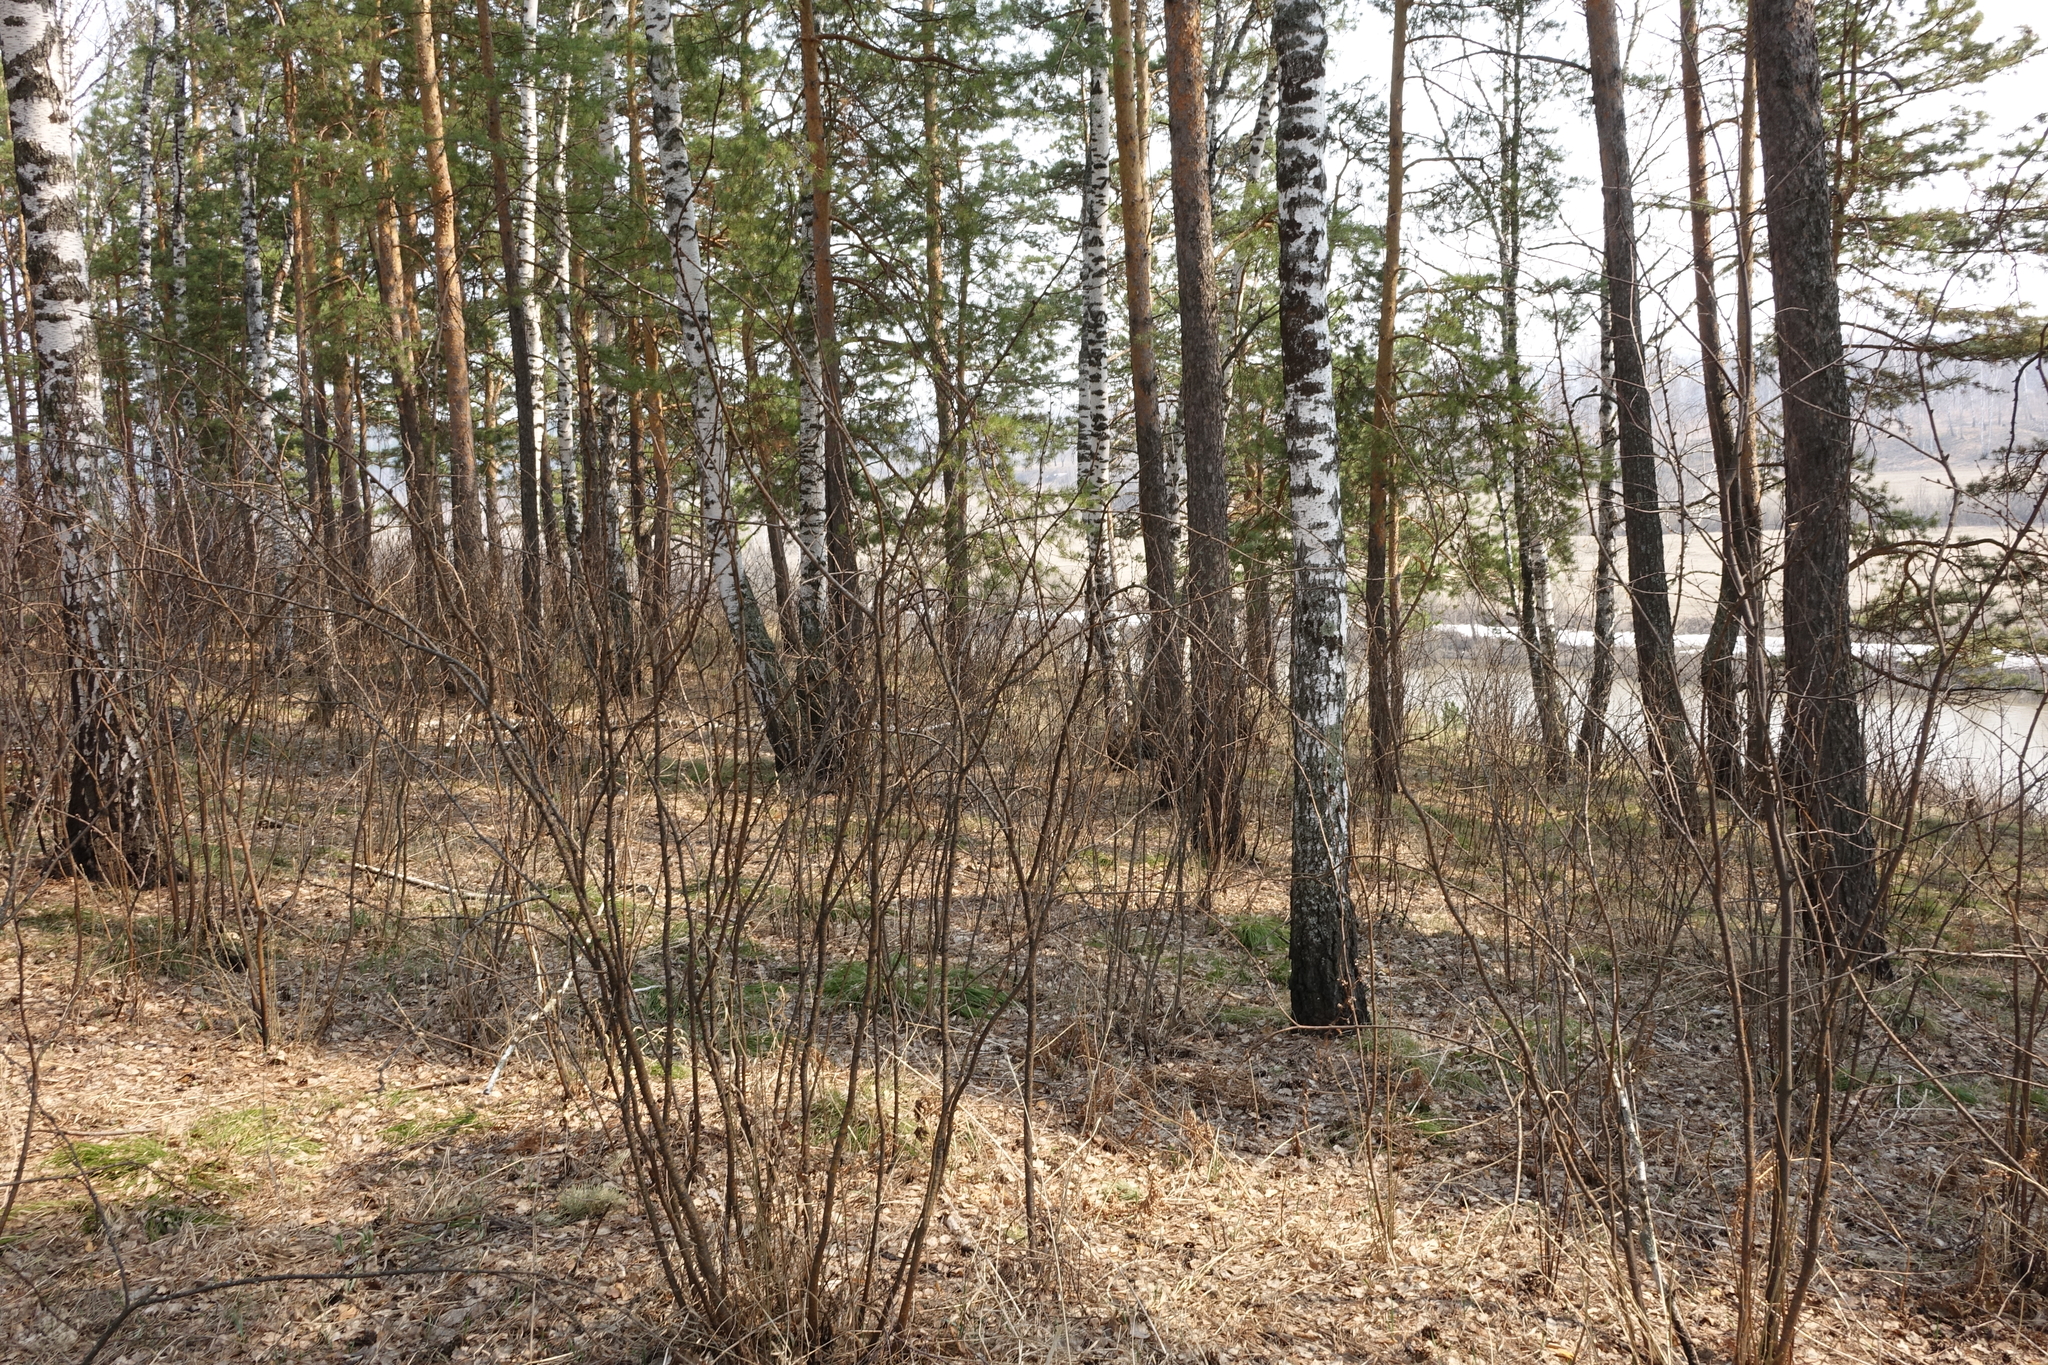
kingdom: Plantae
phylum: Tracheophyta
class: Magnoliopsida
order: Fabales
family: Fabaceae
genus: Caragana
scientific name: Caragana arborescens
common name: Siberian peashrub
